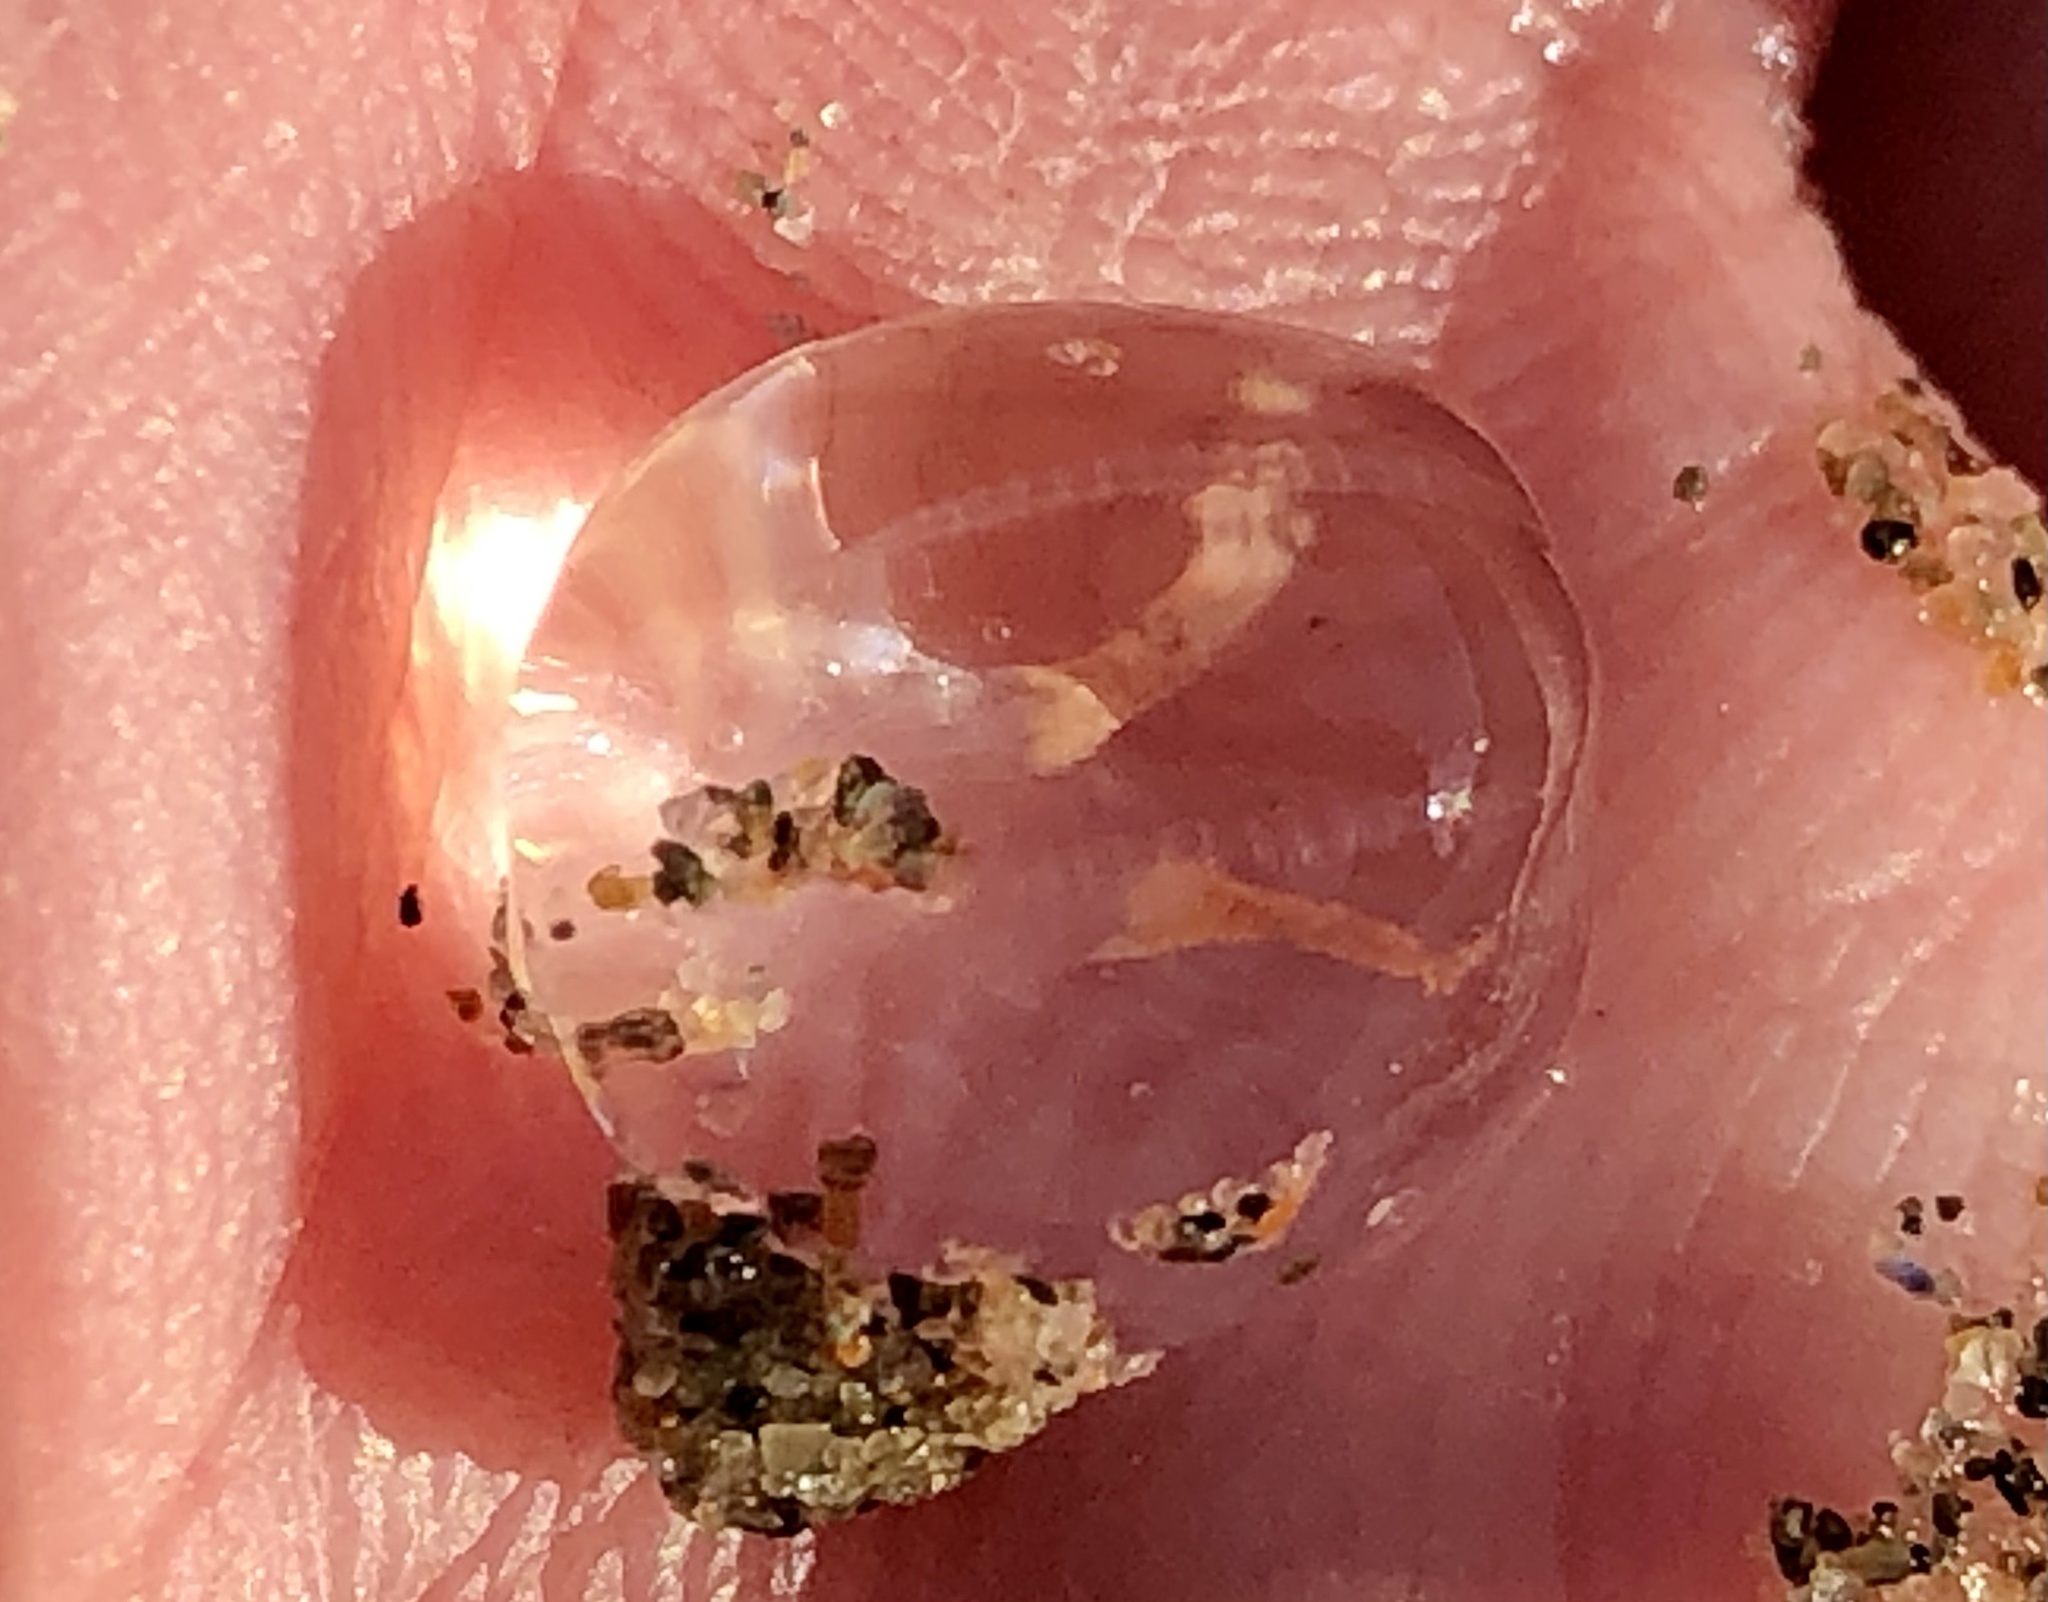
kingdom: Animalia
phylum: Ctenophora
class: Tentaculata
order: Cydippida
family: Pleurobrachiidae
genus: Pleurobrachia
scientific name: Pleurobrachia bachei
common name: Pacific sea gooseberry
